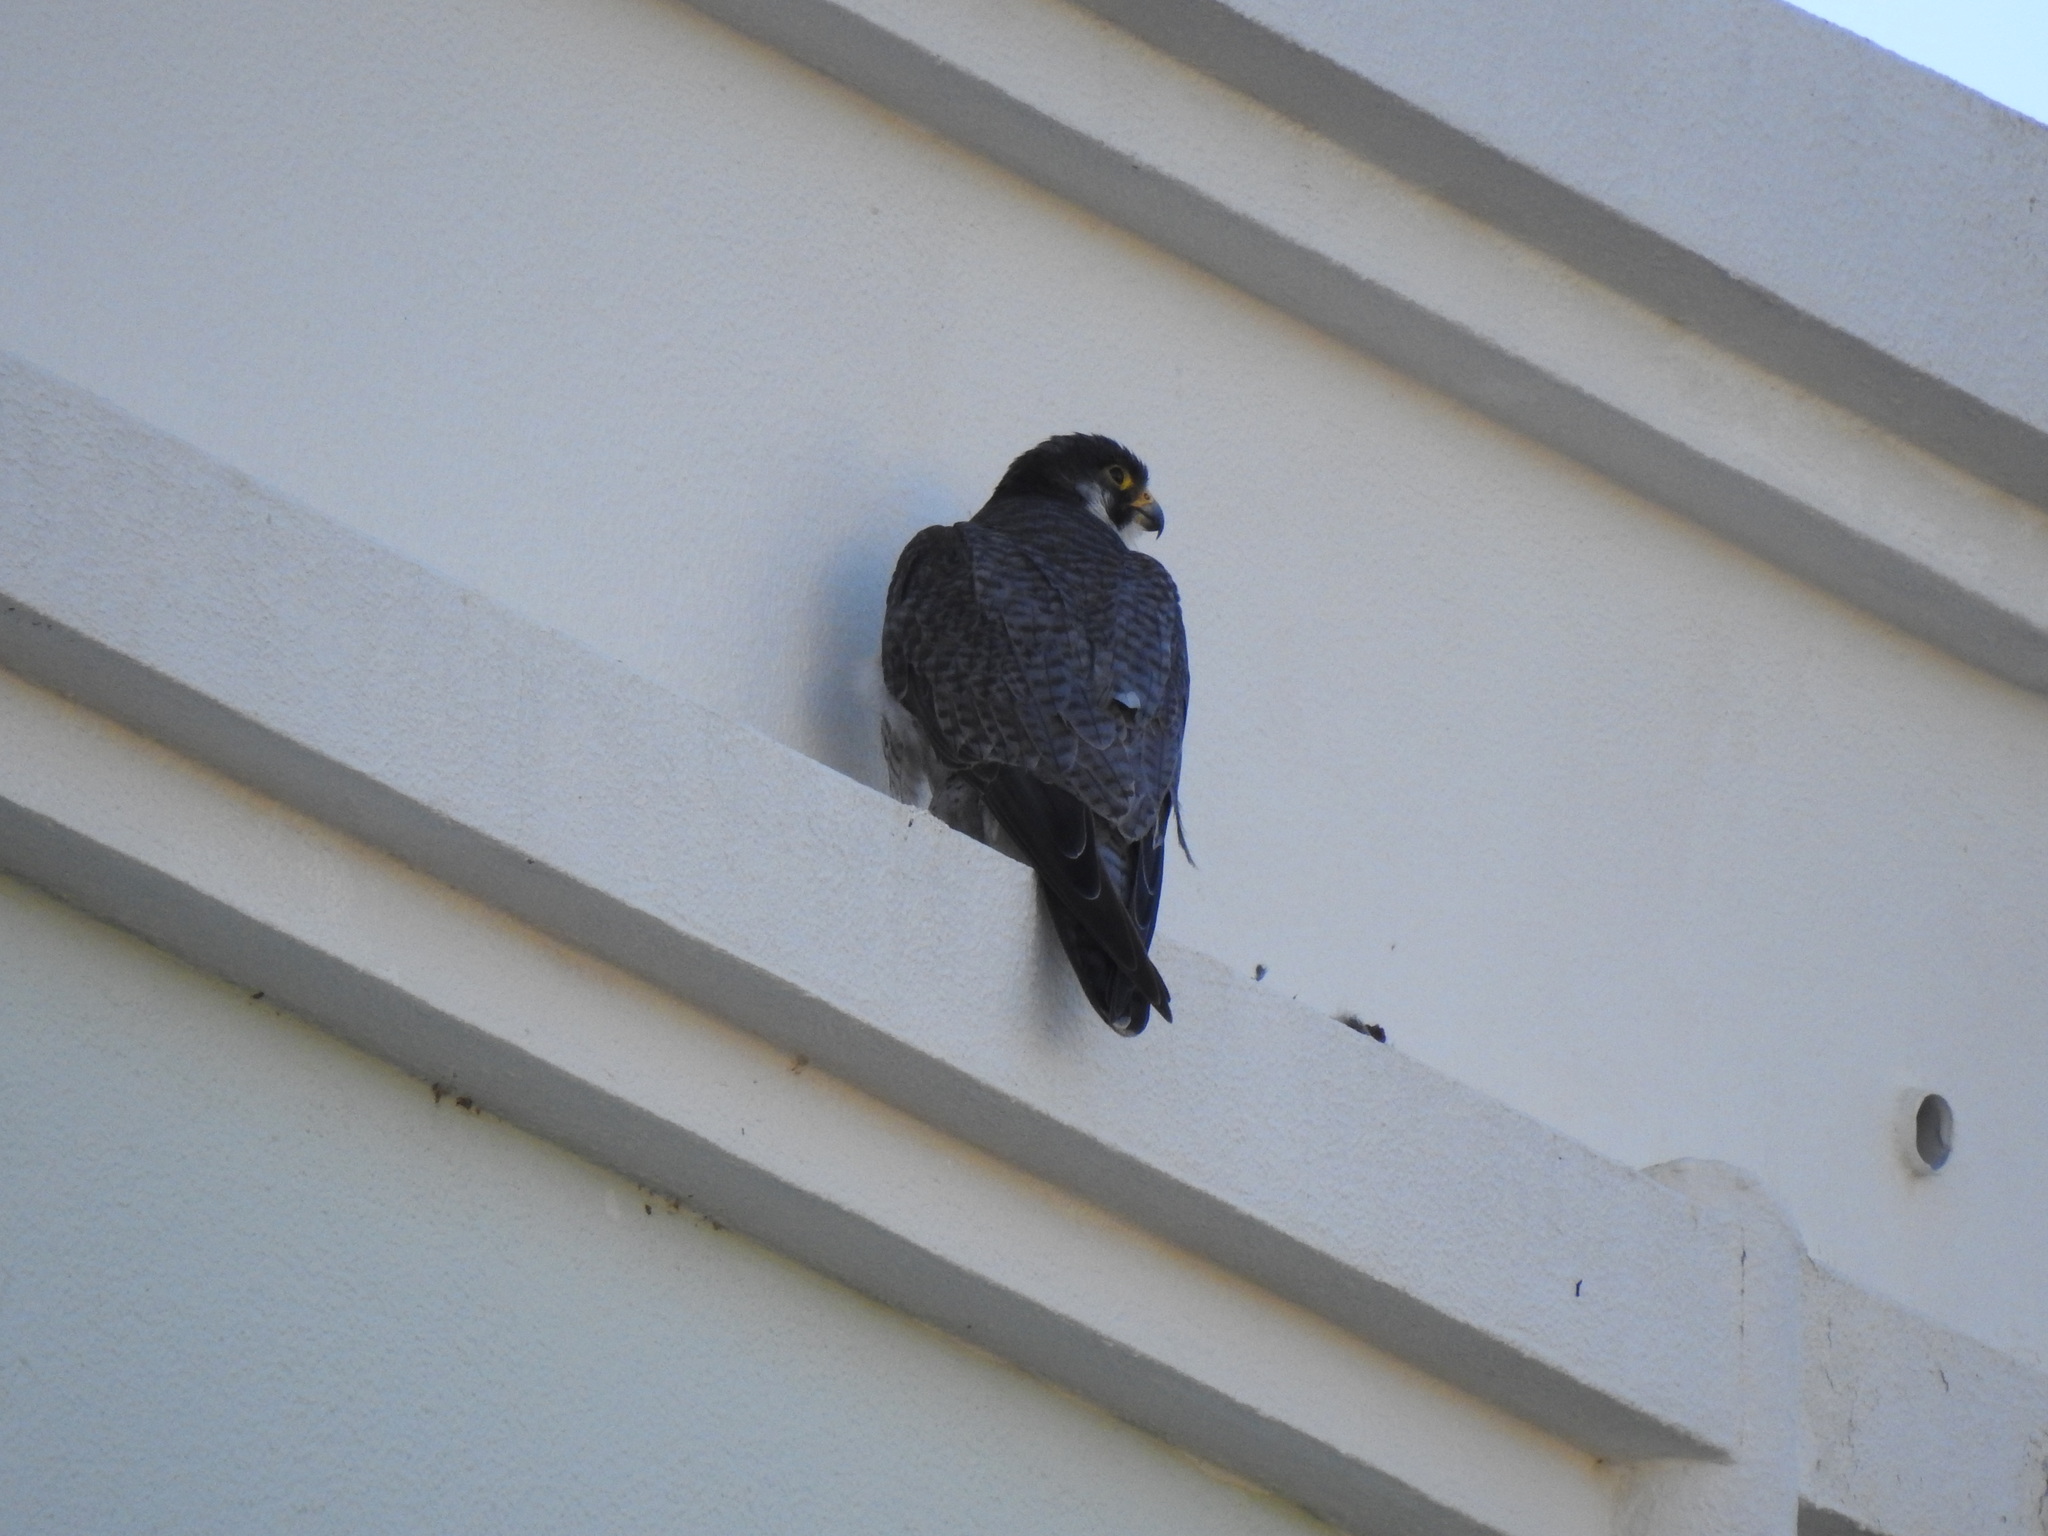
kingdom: Animalia
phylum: Chordata
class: Aves
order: Falconiformes
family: Falconidae
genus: Falco
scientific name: Falco peregrinus
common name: Peregrine falcon
